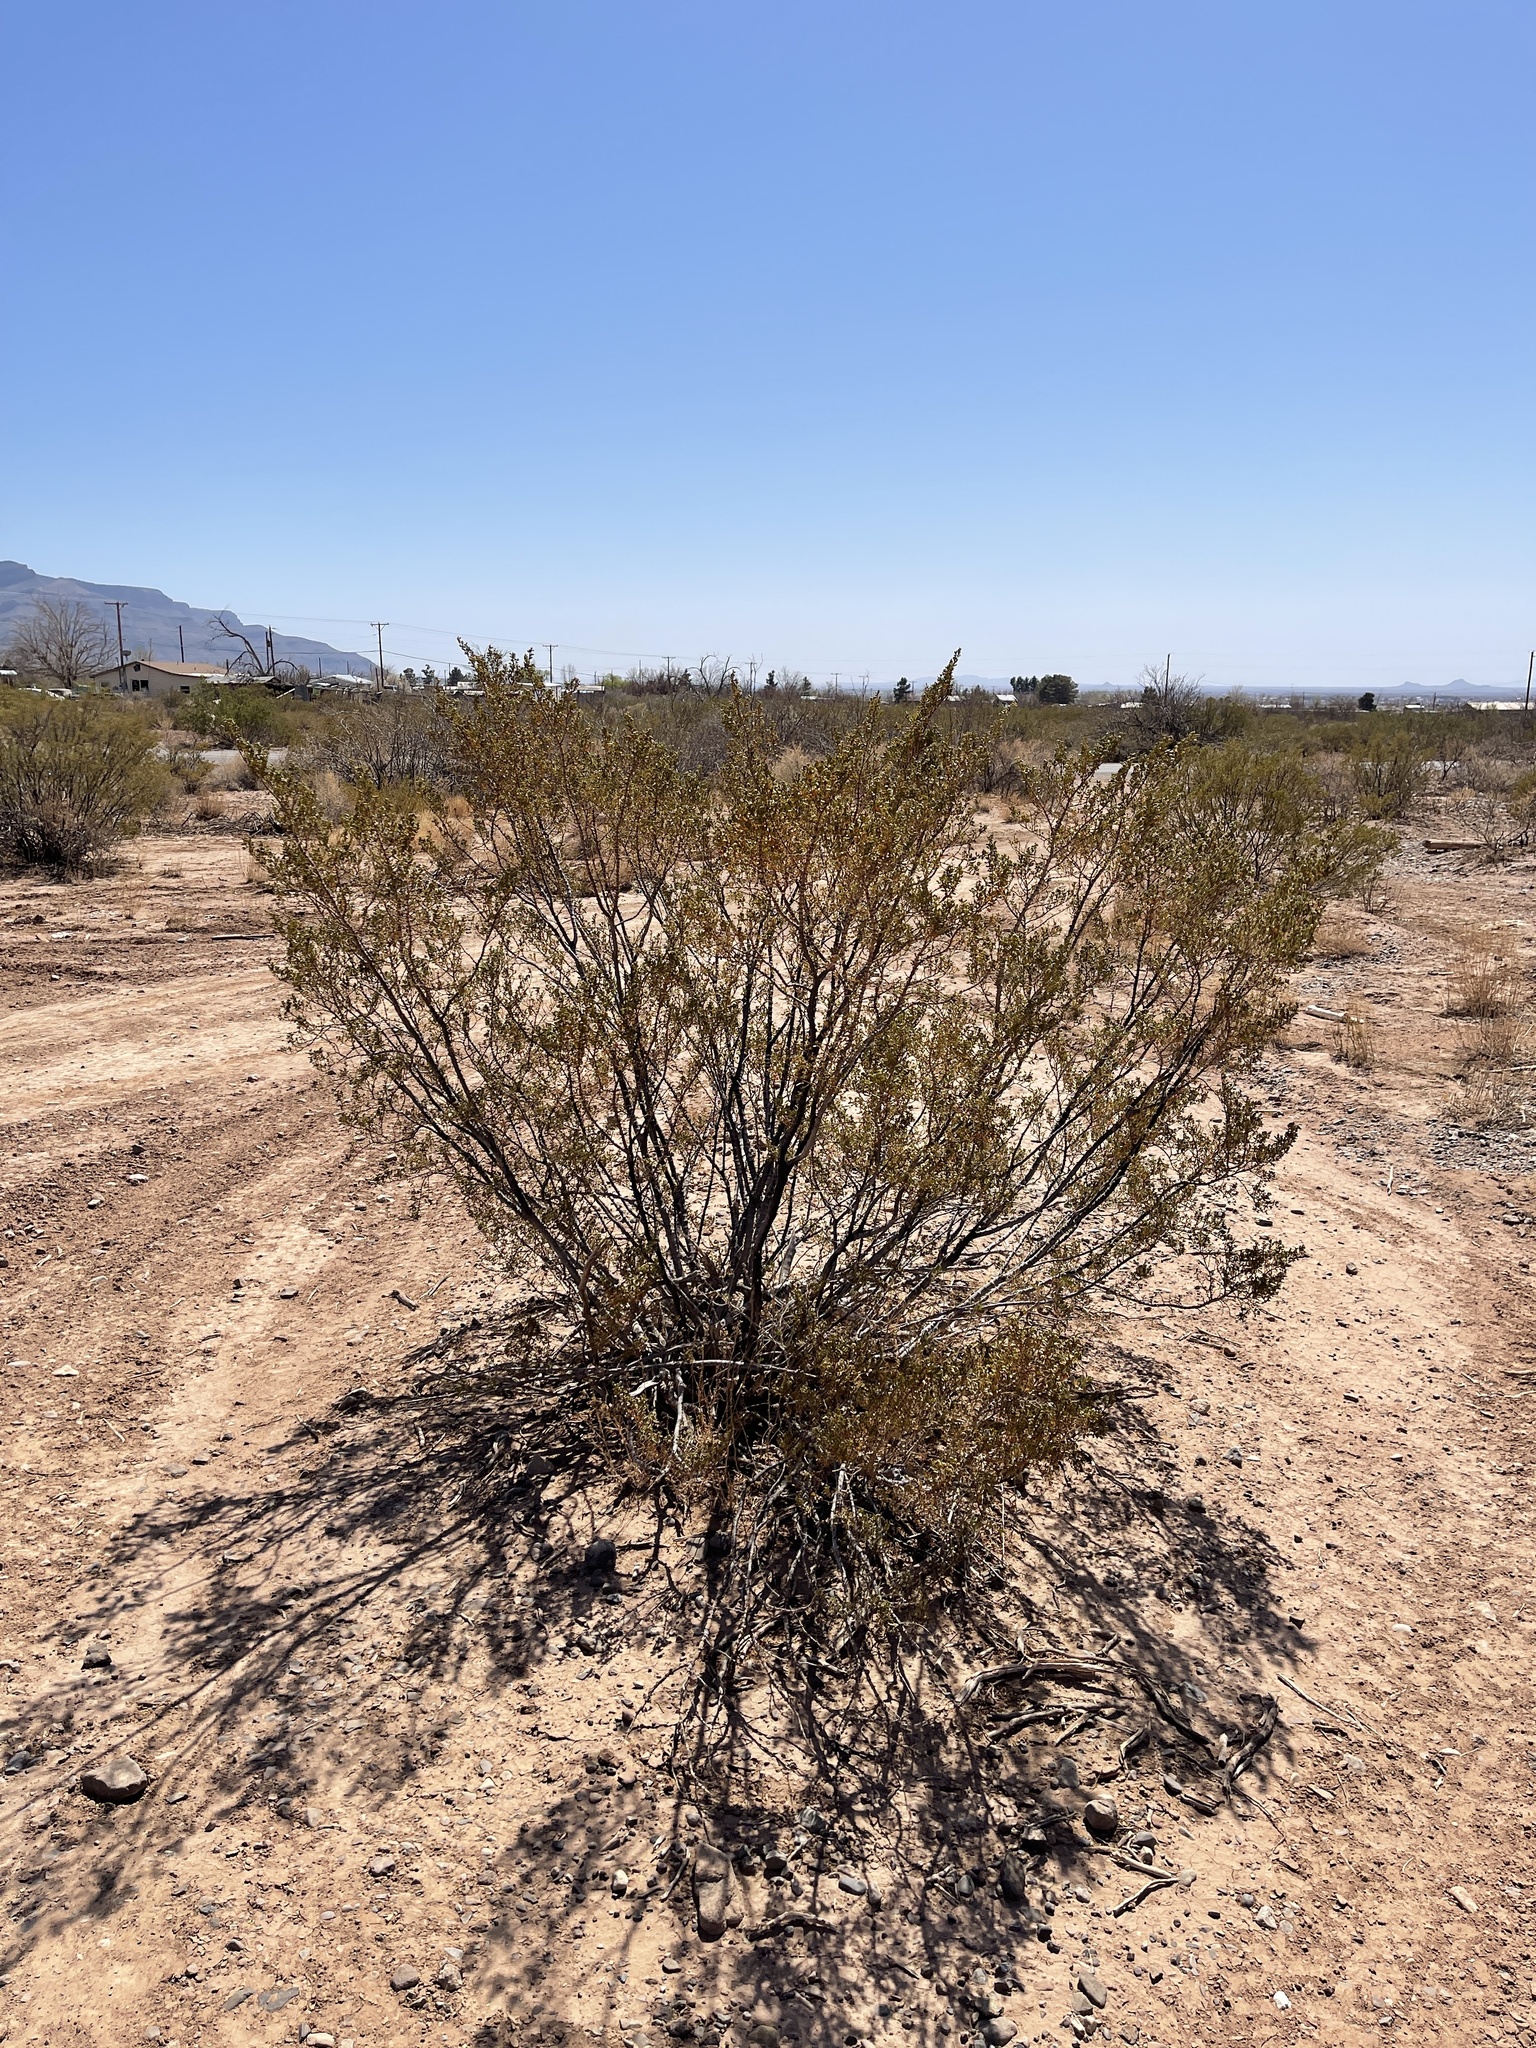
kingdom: Plantae
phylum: Tracheophyta
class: Magnoliopsida
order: Zygophyllales
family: Zygophyllaceae
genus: Larrea
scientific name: Larrea tridentata
